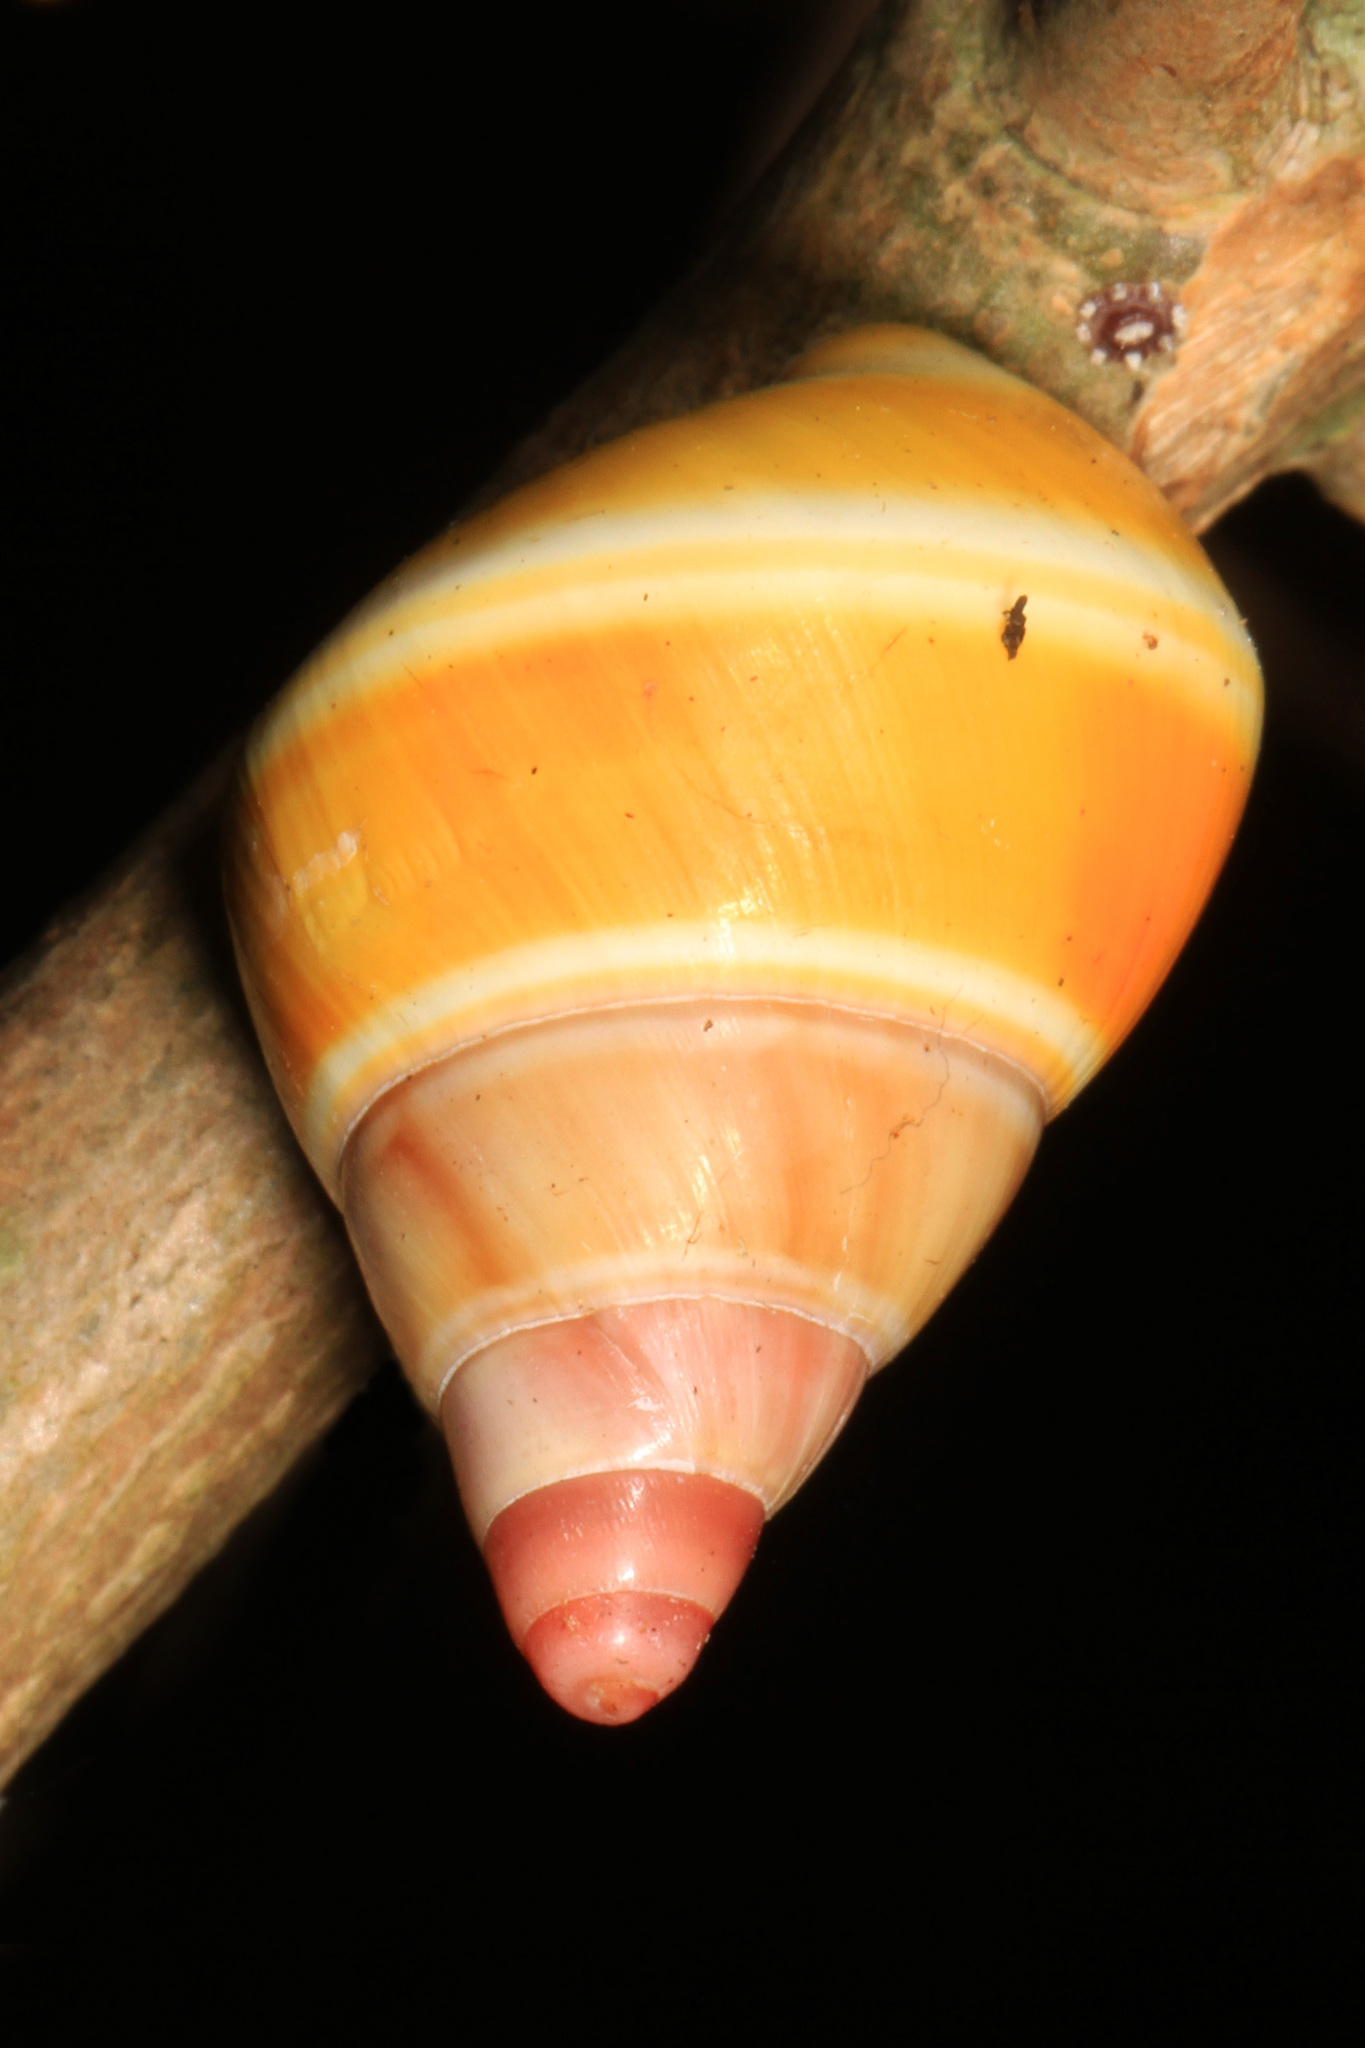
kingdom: Animalia
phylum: Mollusca
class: Gastropoda
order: Stylommatophora
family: Orthalicidae
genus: Liguus
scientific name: Liguus fasciatus
